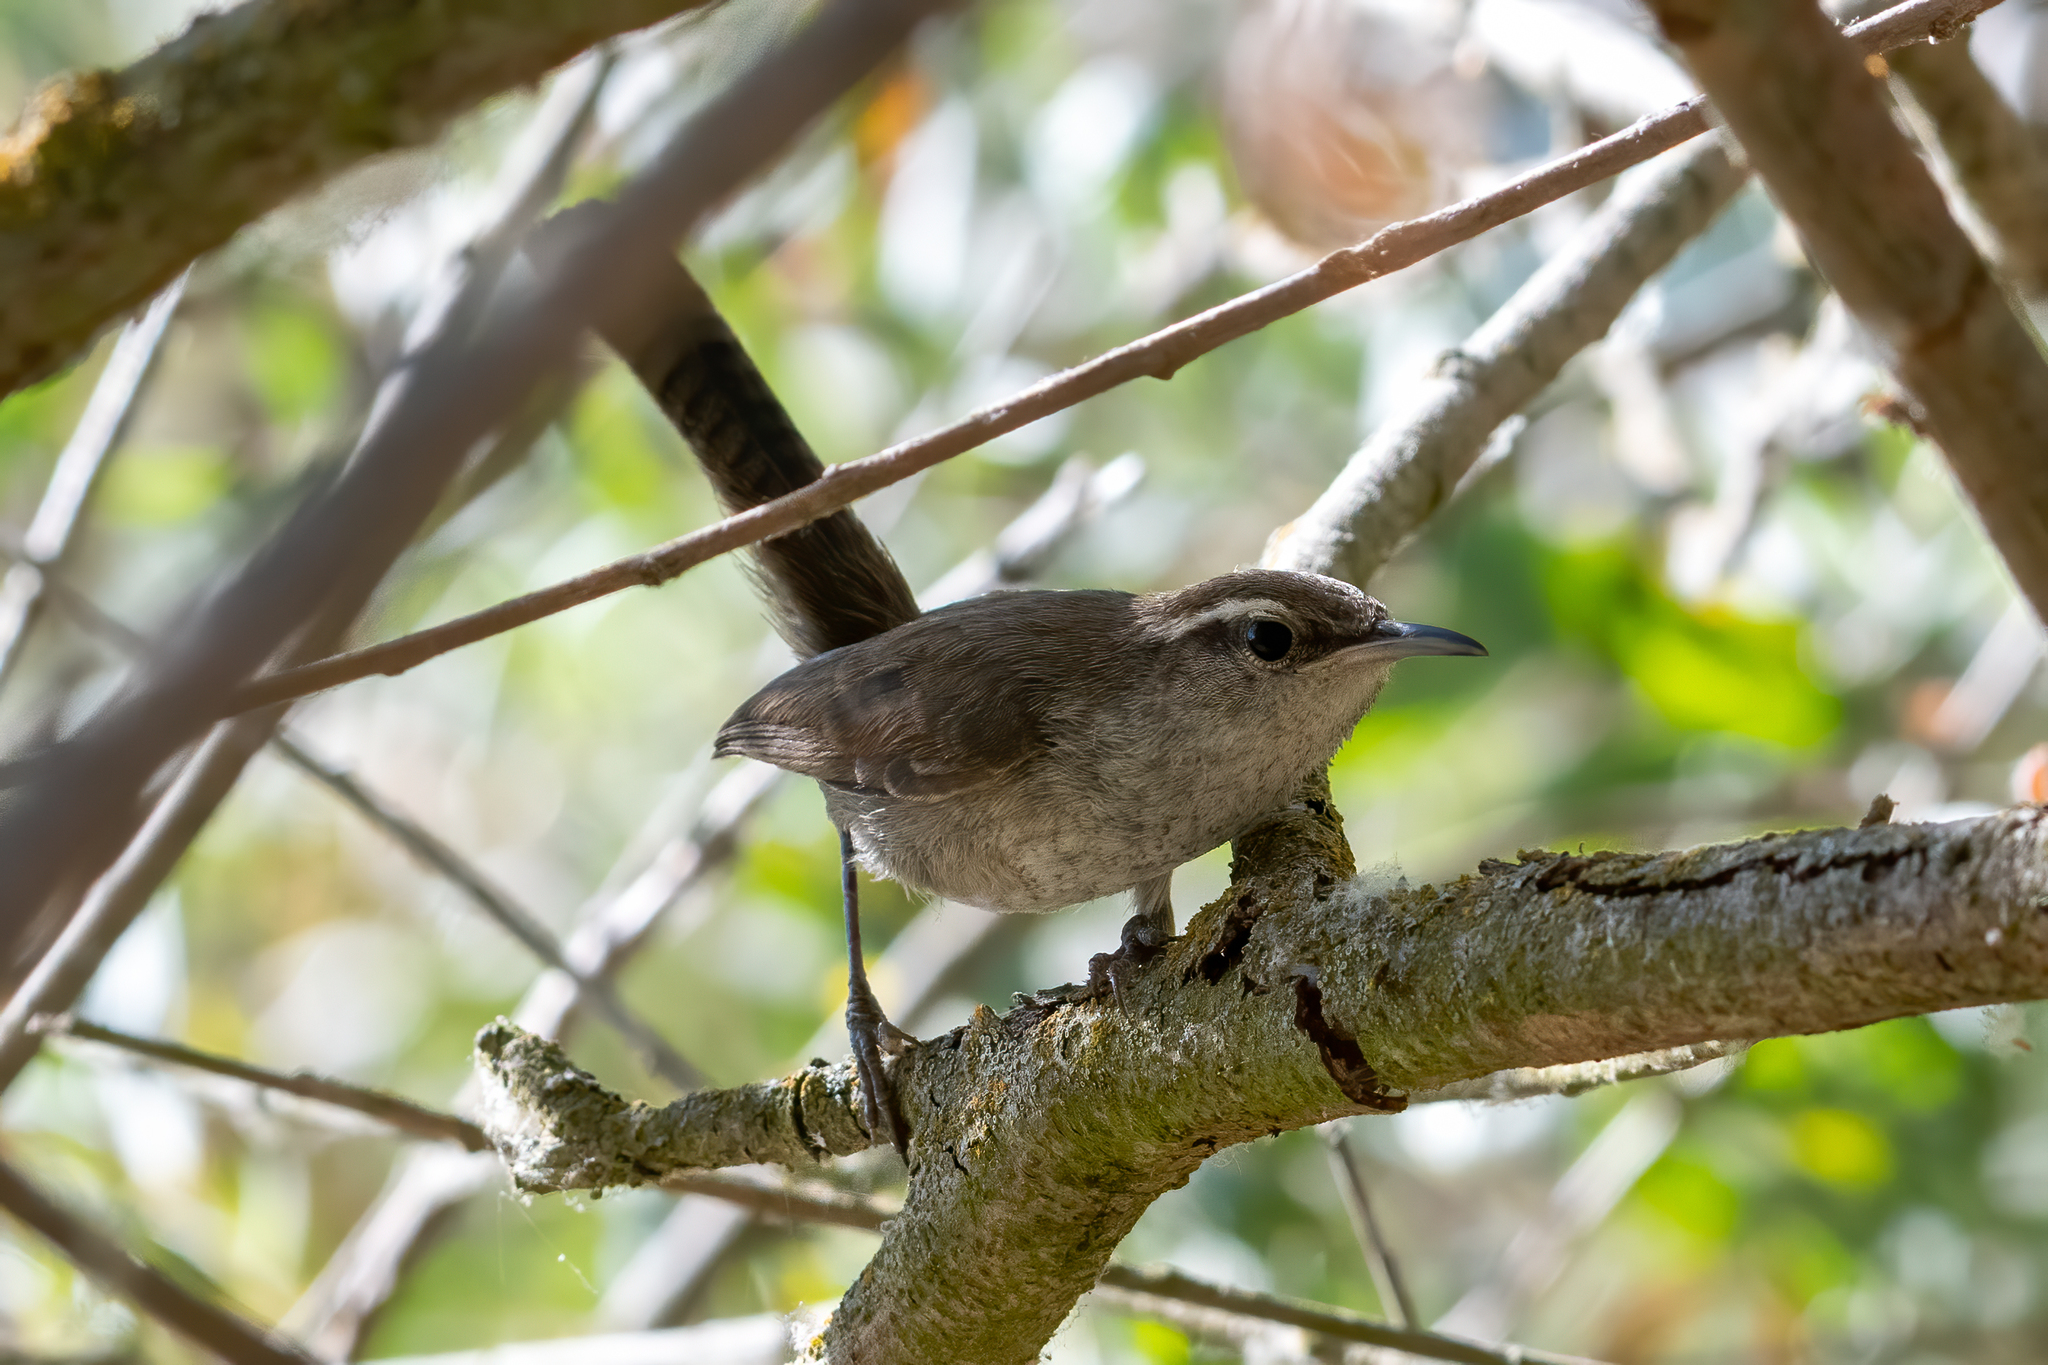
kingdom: Animalia
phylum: Chordata
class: Aves
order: Passeriformes
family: Troglodytidae
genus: Thryomanes
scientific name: Thryomanes bewickii
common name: Bewick's wren
